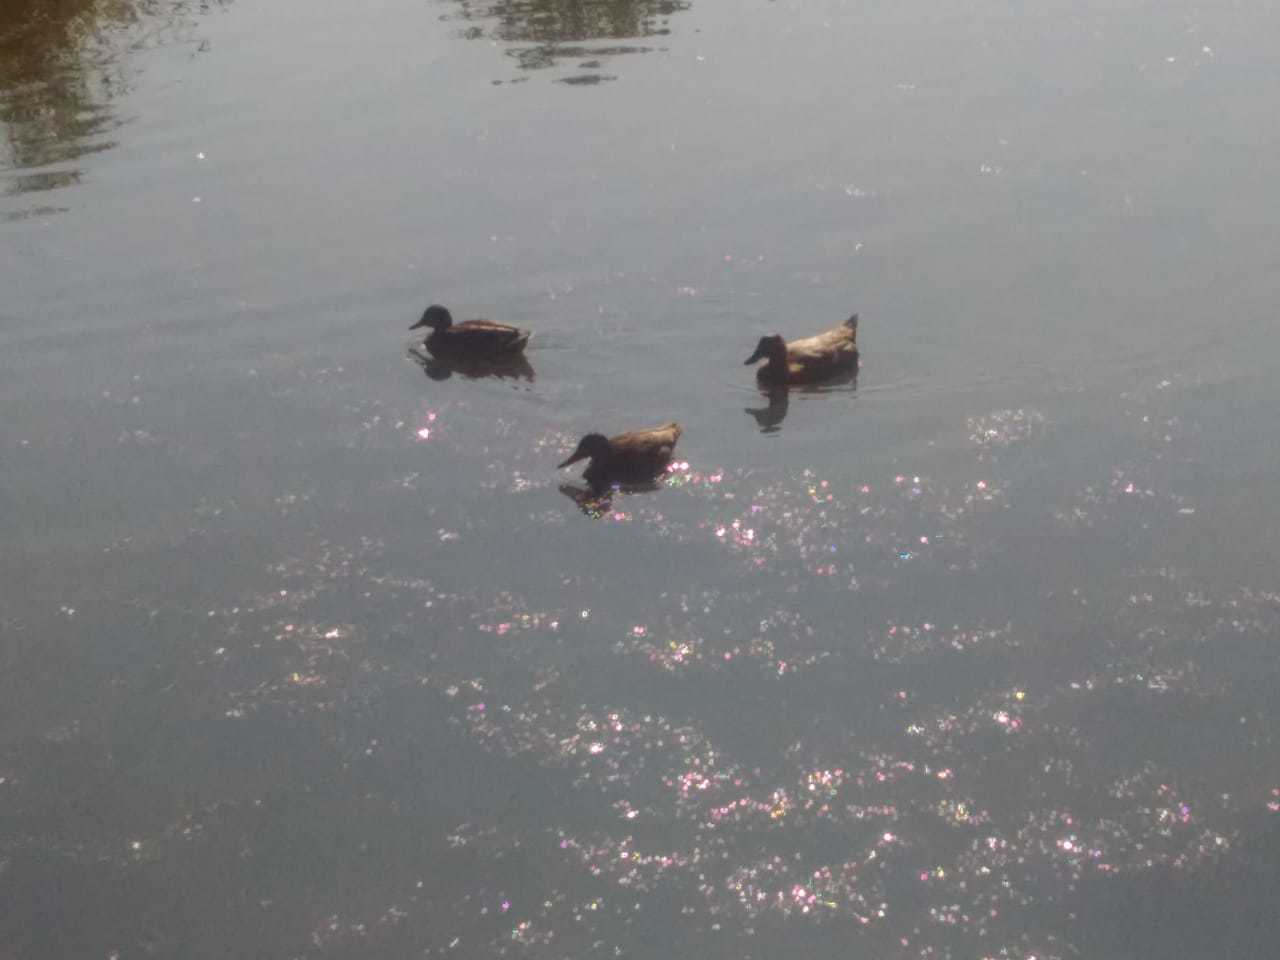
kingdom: Animalia
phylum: Chordata
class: Aves
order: Anseriformes
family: Anatidae
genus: Anas
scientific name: Anas platyrhynchos
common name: Mallard
